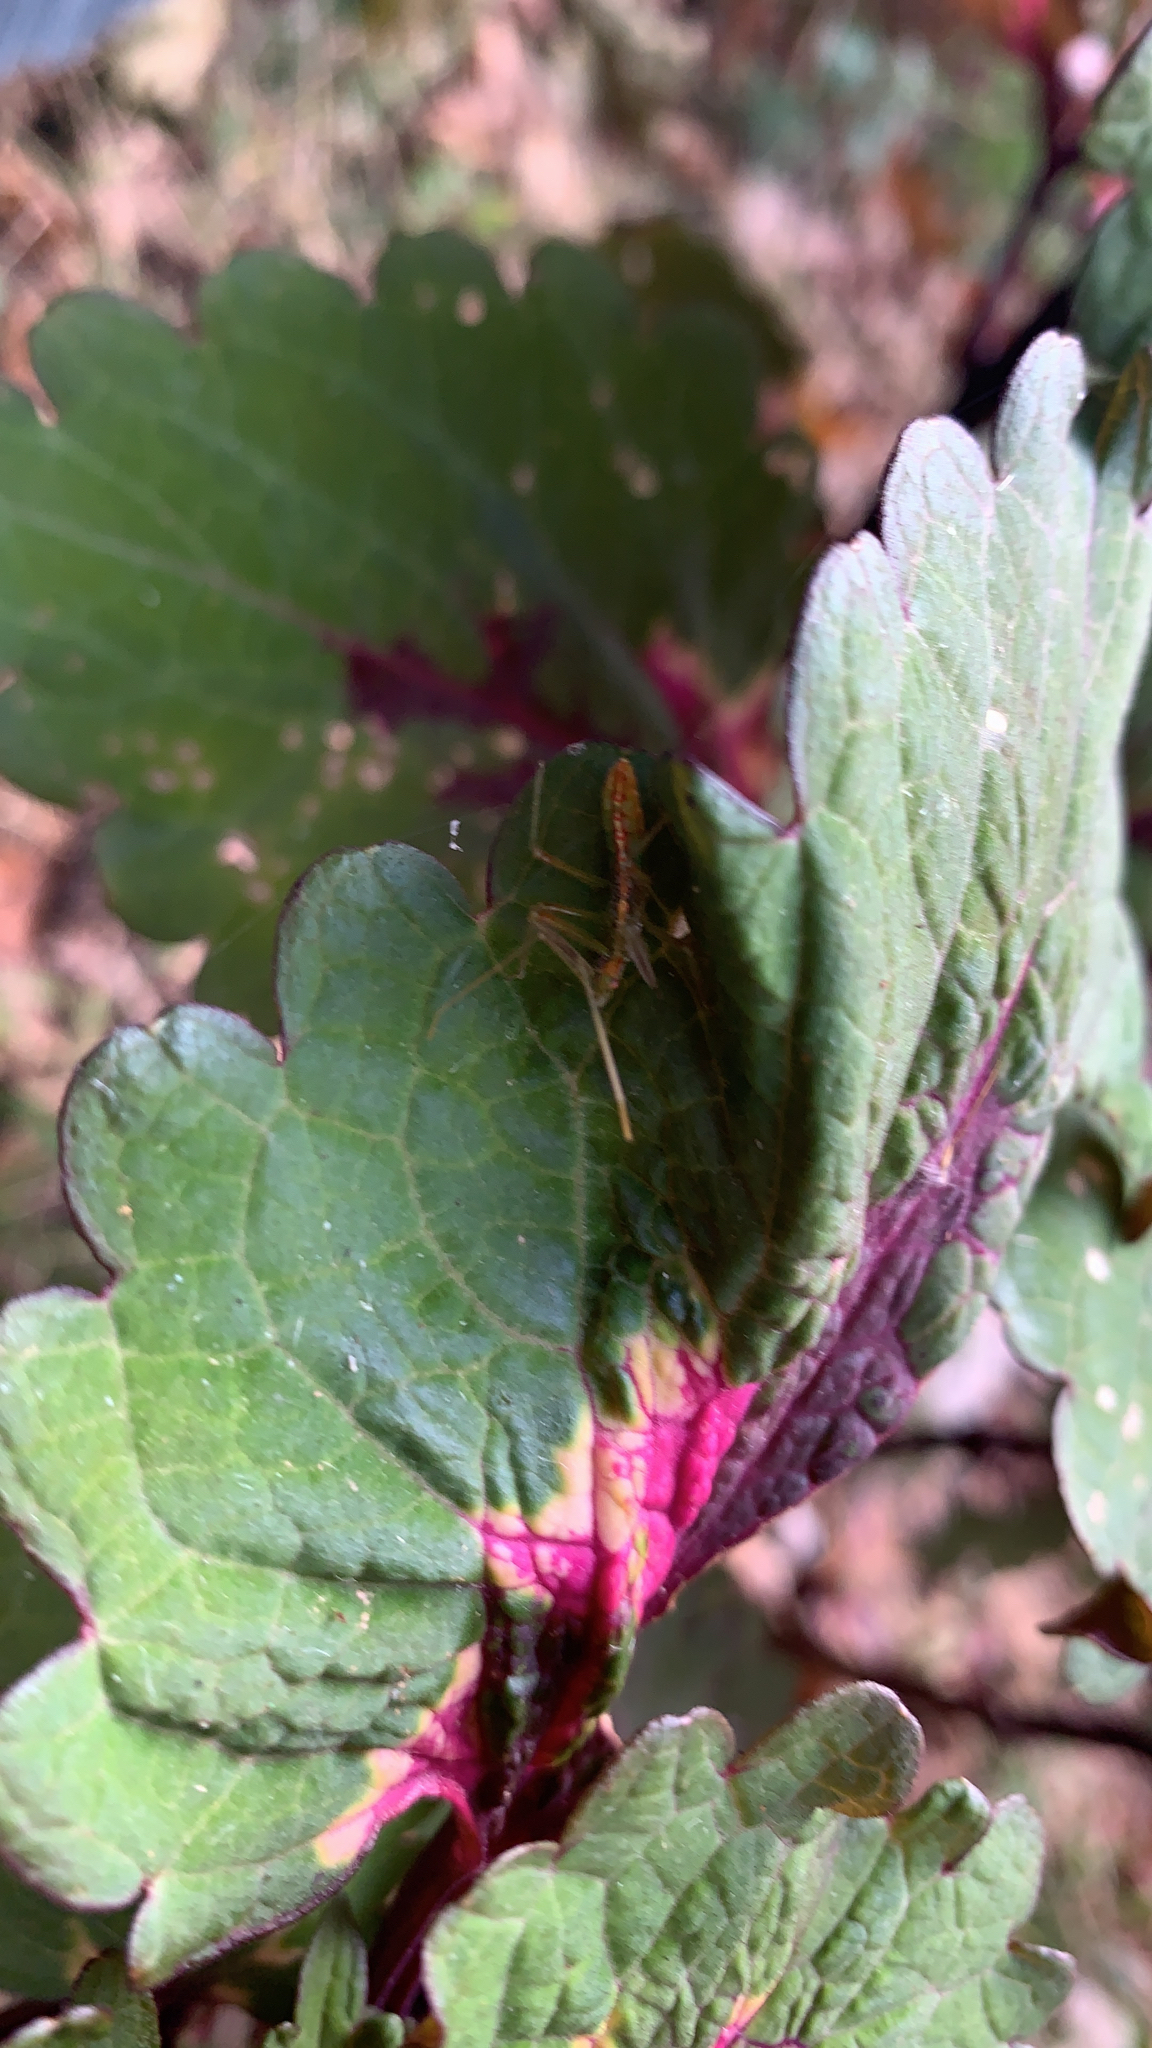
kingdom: Animalia
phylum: Arthropoda
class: Insecta
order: Hemiptera
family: Reduviidae
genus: Zelus
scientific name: Zelus luridus
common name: Pale green assassin bug
